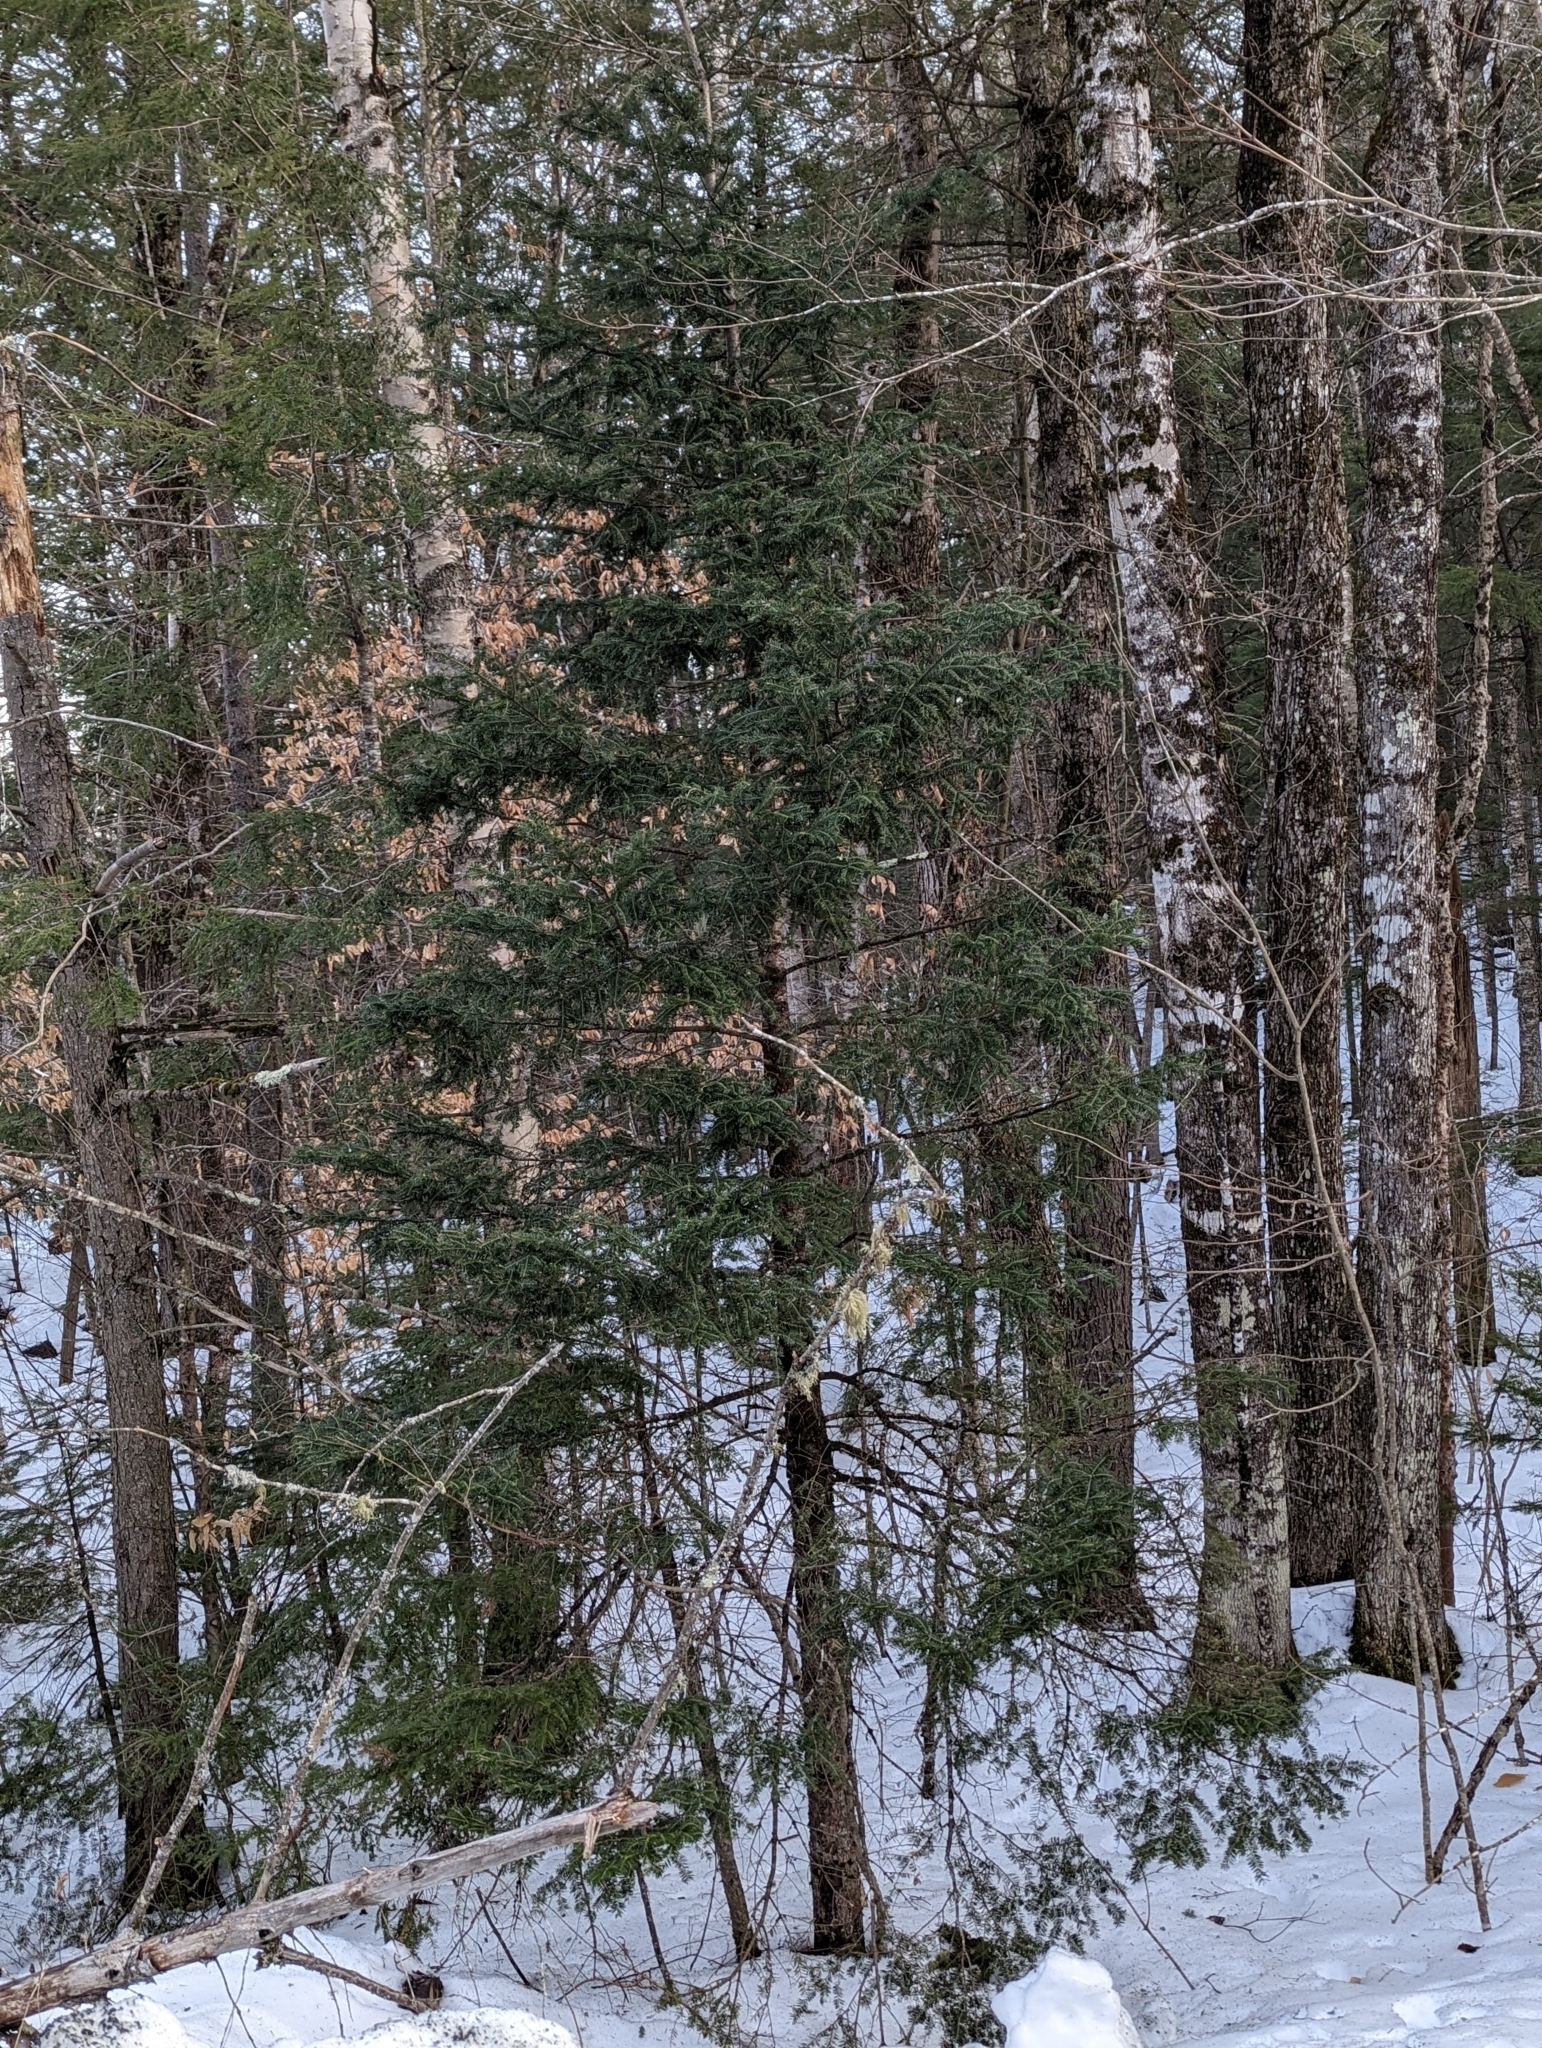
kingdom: Plantae
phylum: Tracheophyta
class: Pinopsida
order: Pinales
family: Pinaceae
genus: Abies
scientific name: Abies balsamea
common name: Balsam fir
